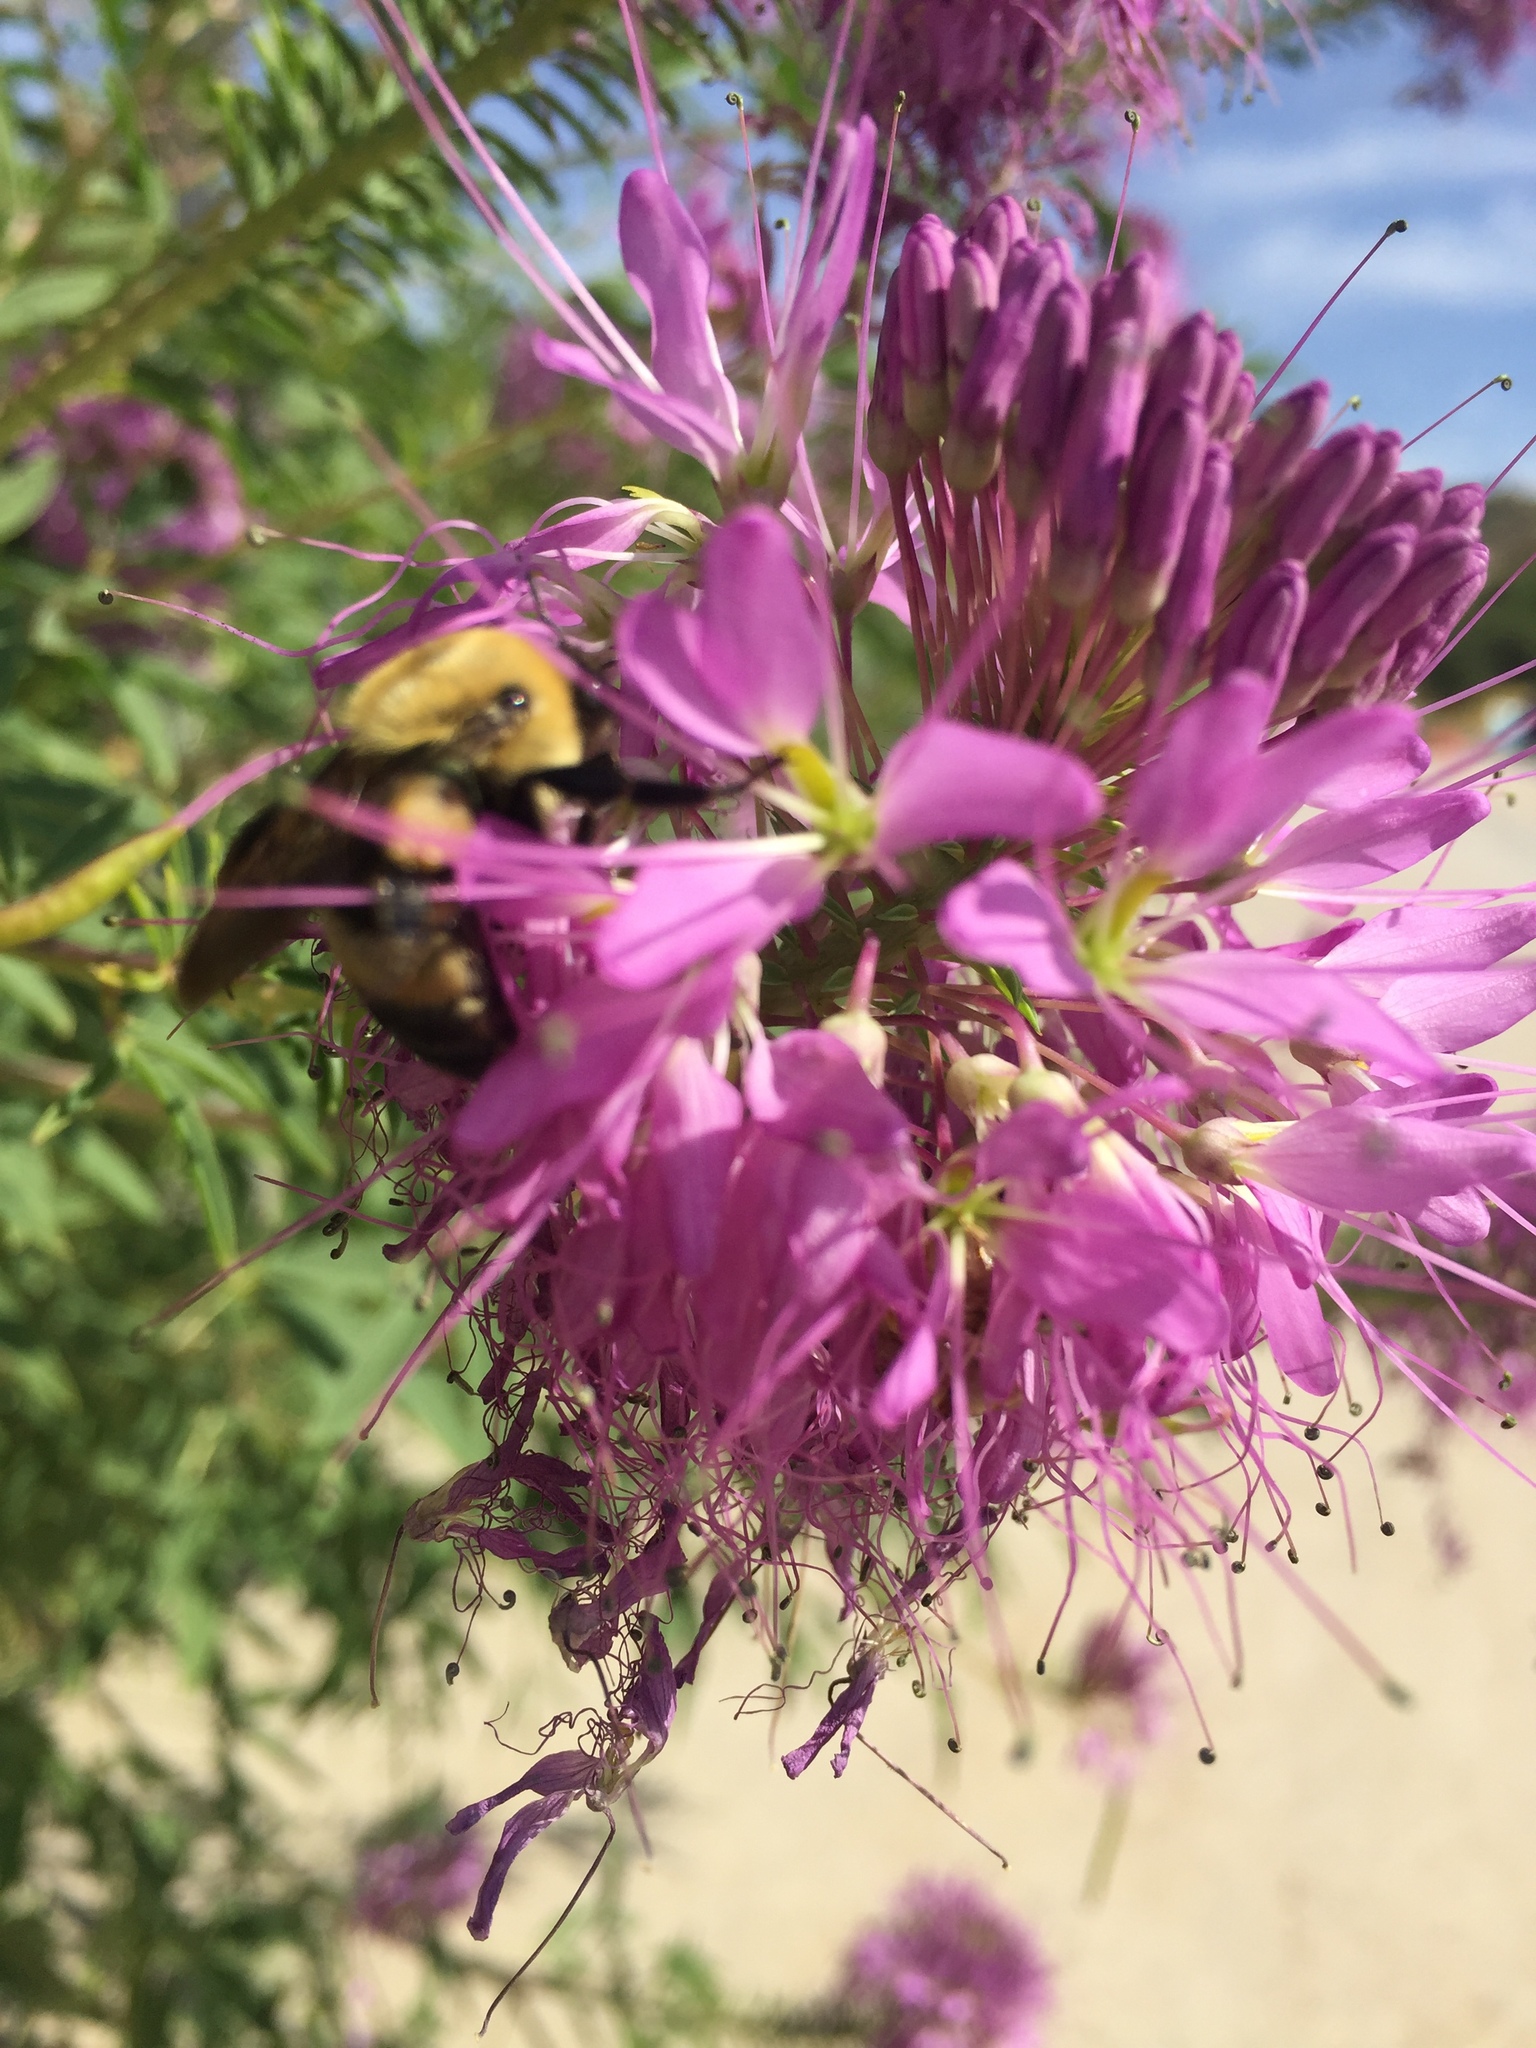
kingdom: Animalia
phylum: Arthropoda
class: Insecta
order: Hymenoptera
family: Apidae
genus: Bombus
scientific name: Bombus
